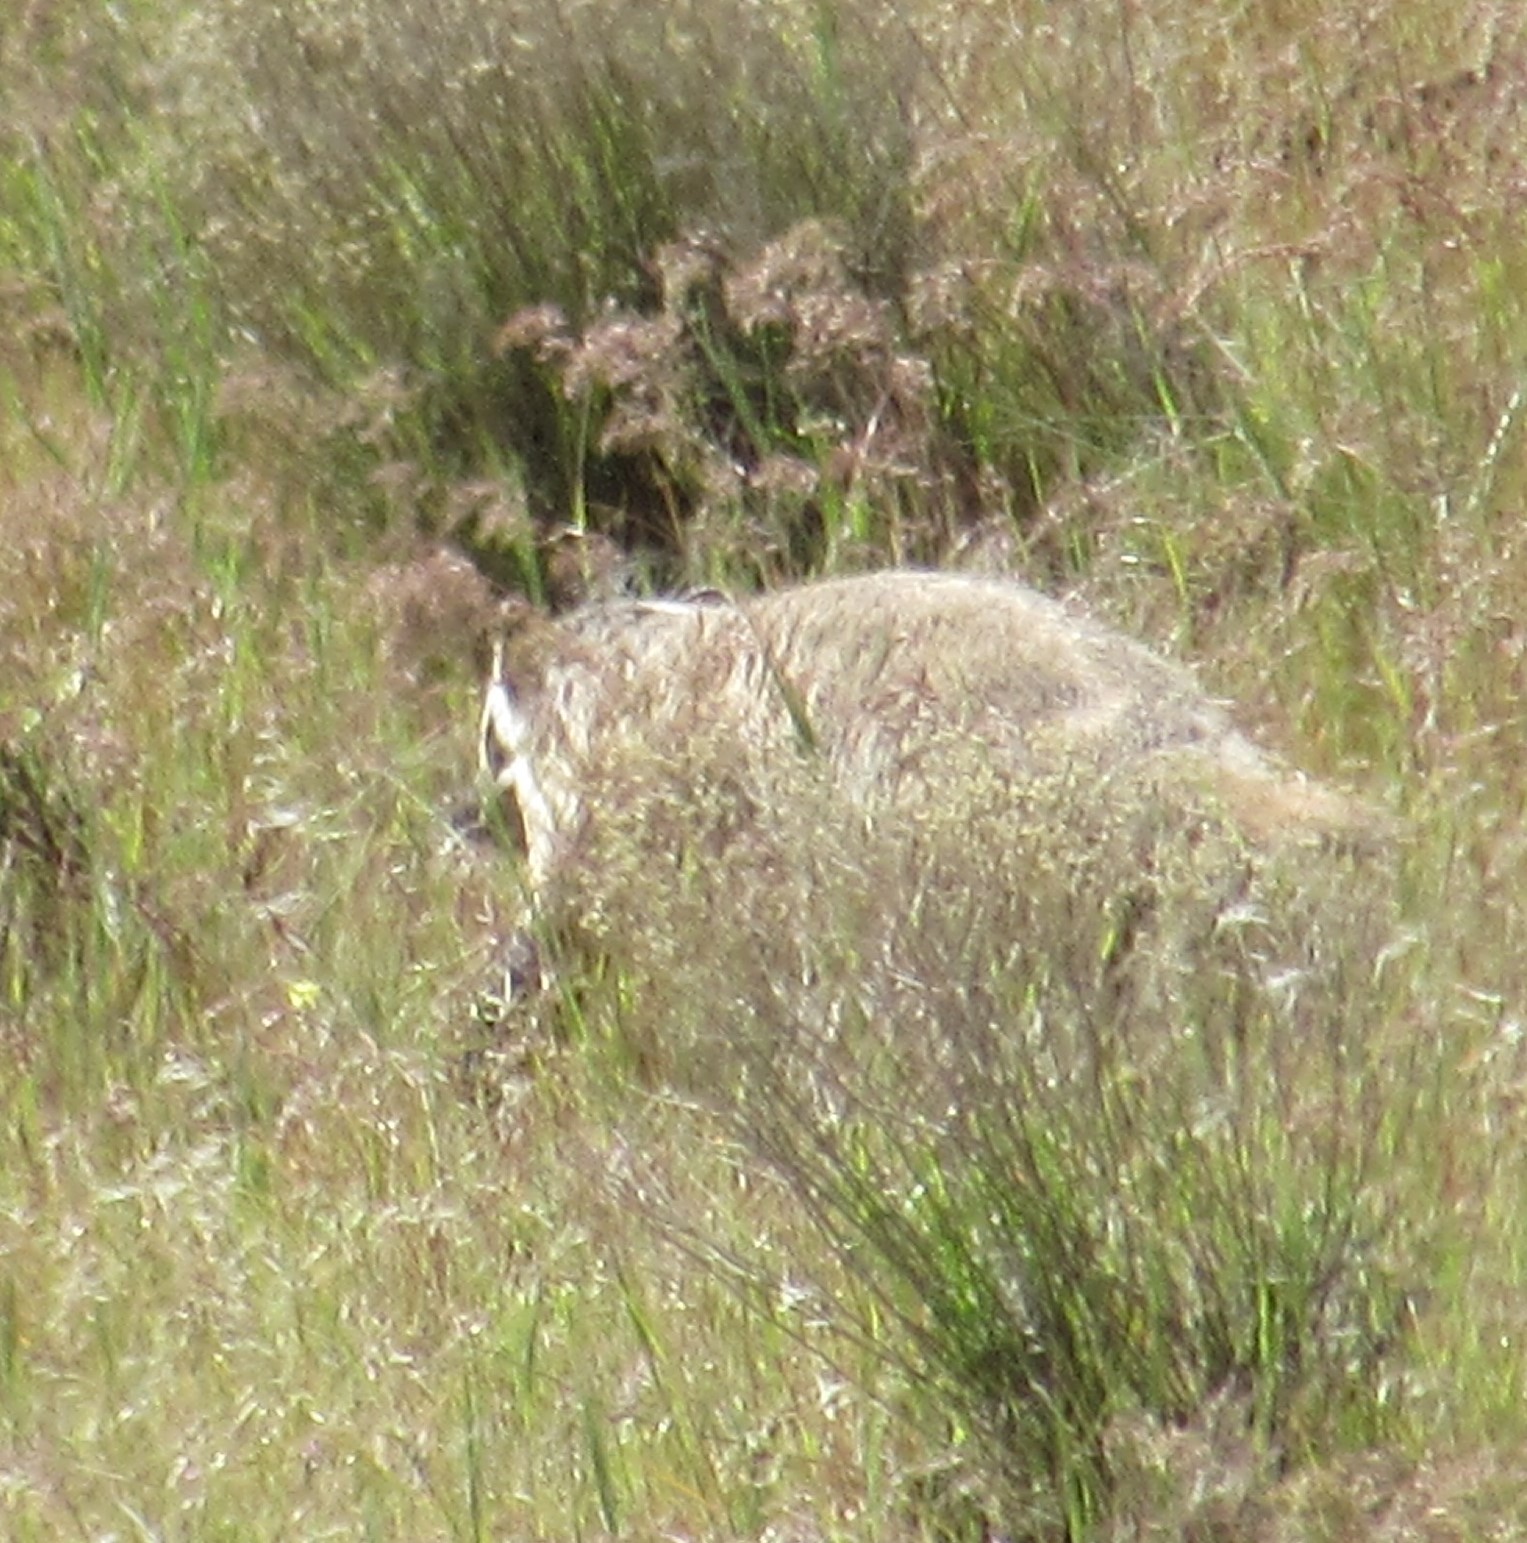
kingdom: Animalia
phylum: Chordata
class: Mammalia
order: Carnivora
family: Mustelidae
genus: Taxidea
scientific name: Taxidea taxus
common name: American badger
